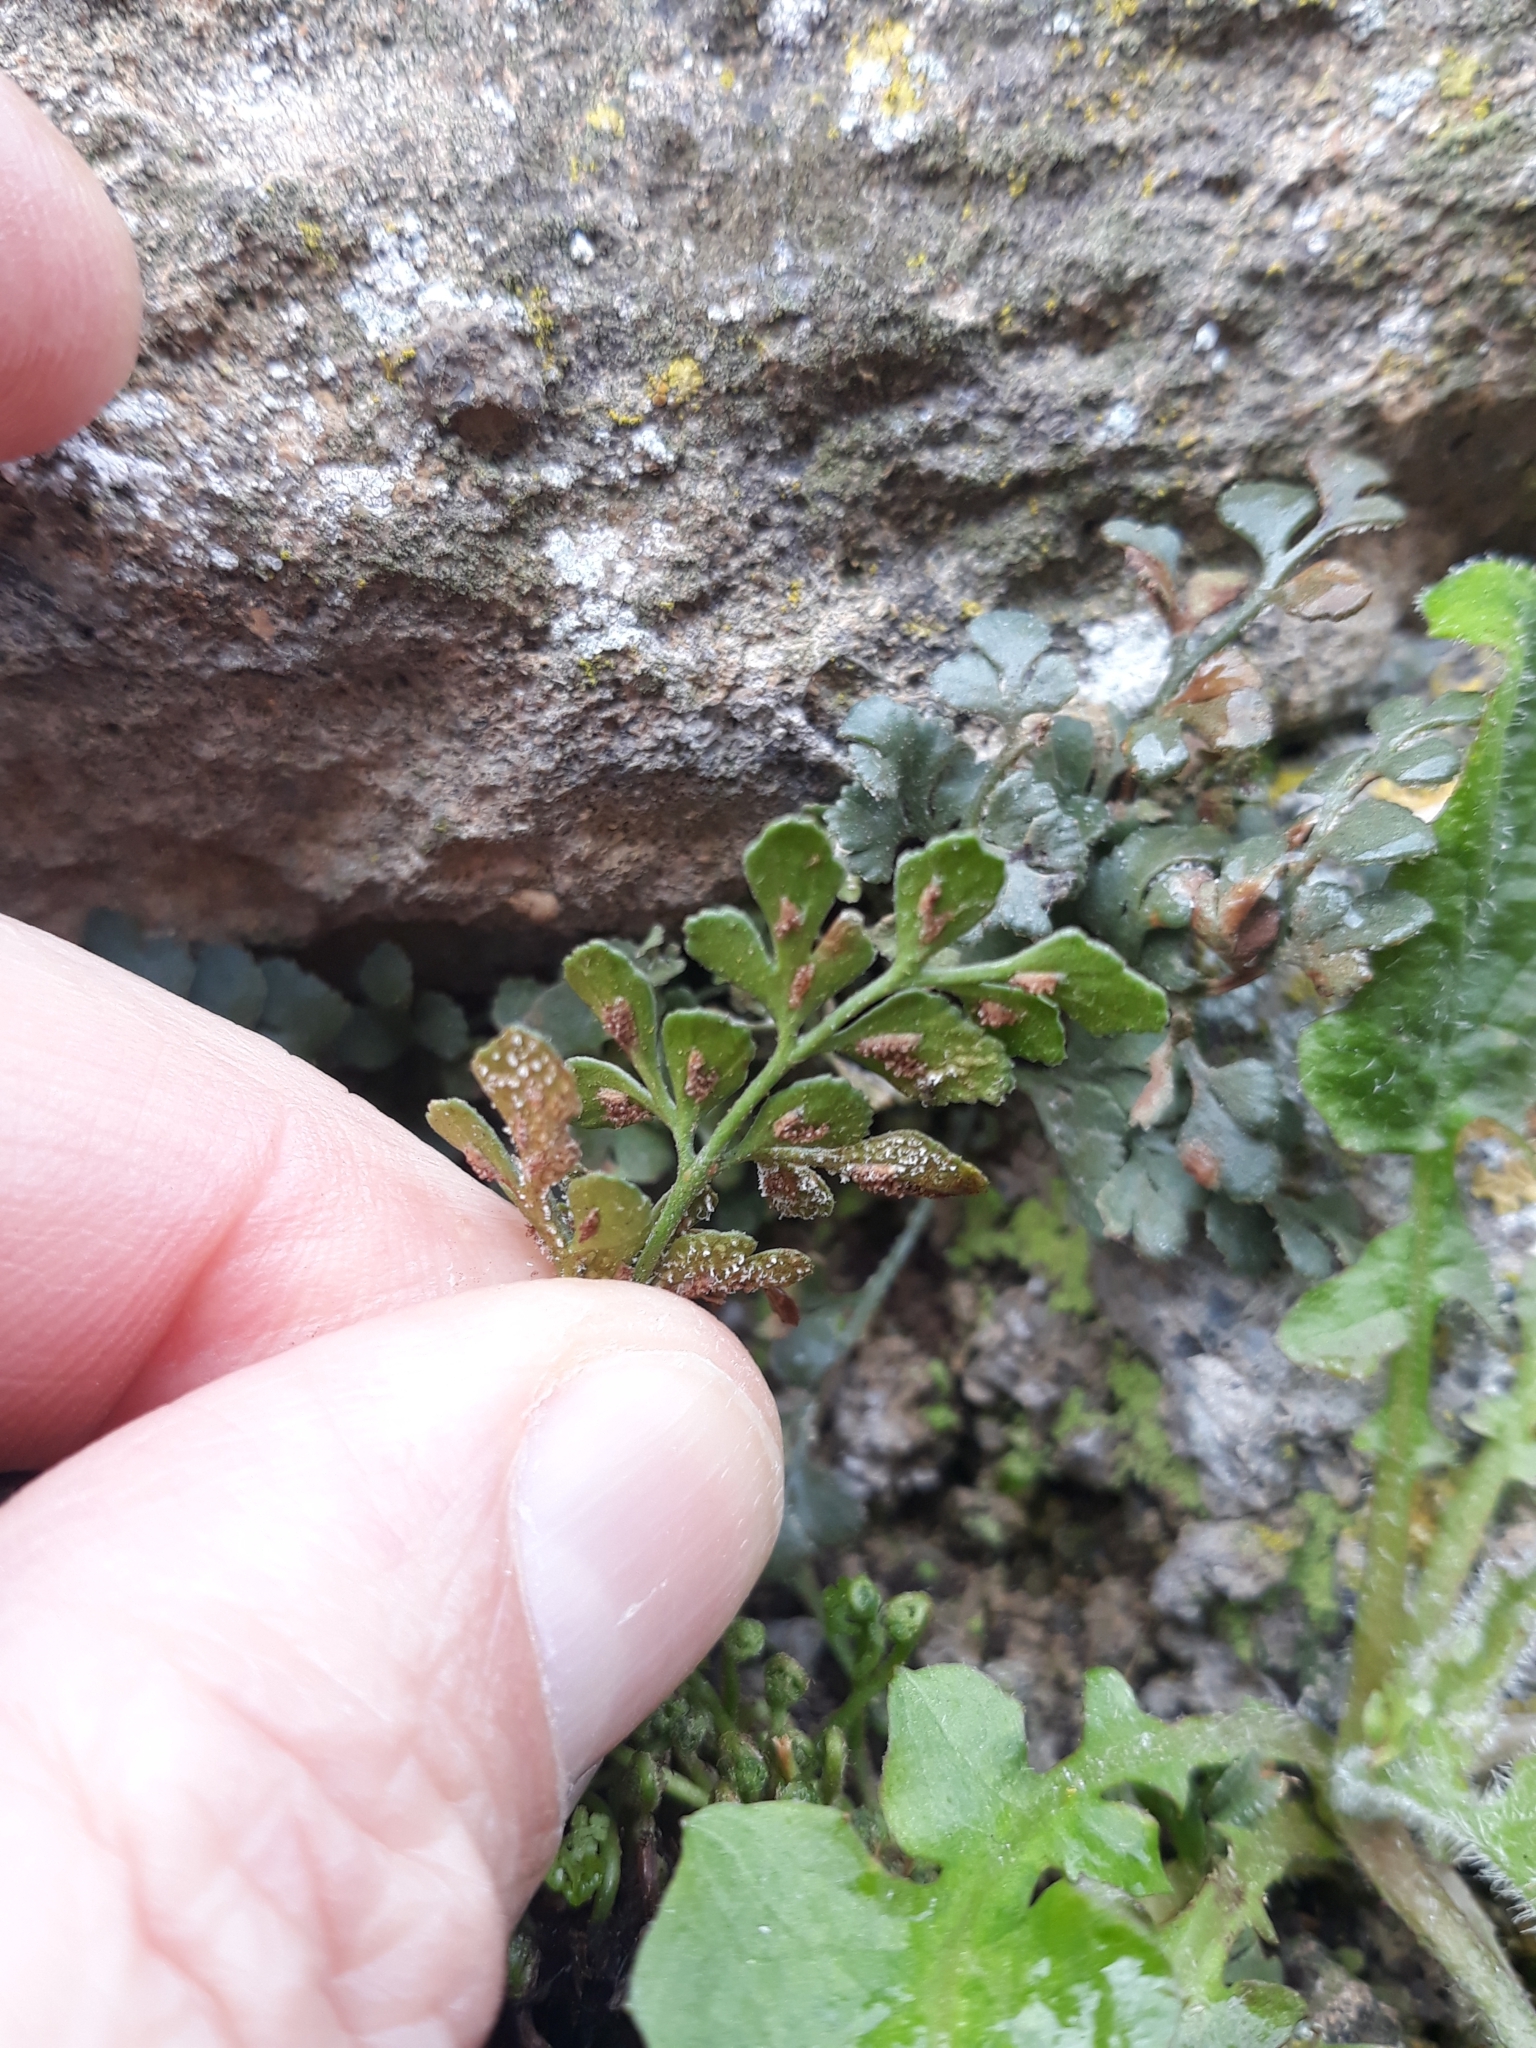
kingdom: Plantae
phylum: Tracheophyta
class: Polypodiopsida
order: Polypodiales
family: Aspleniaceae
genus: Asplenium
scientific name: Asplenium ruta-muraria
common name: Wall-rue
